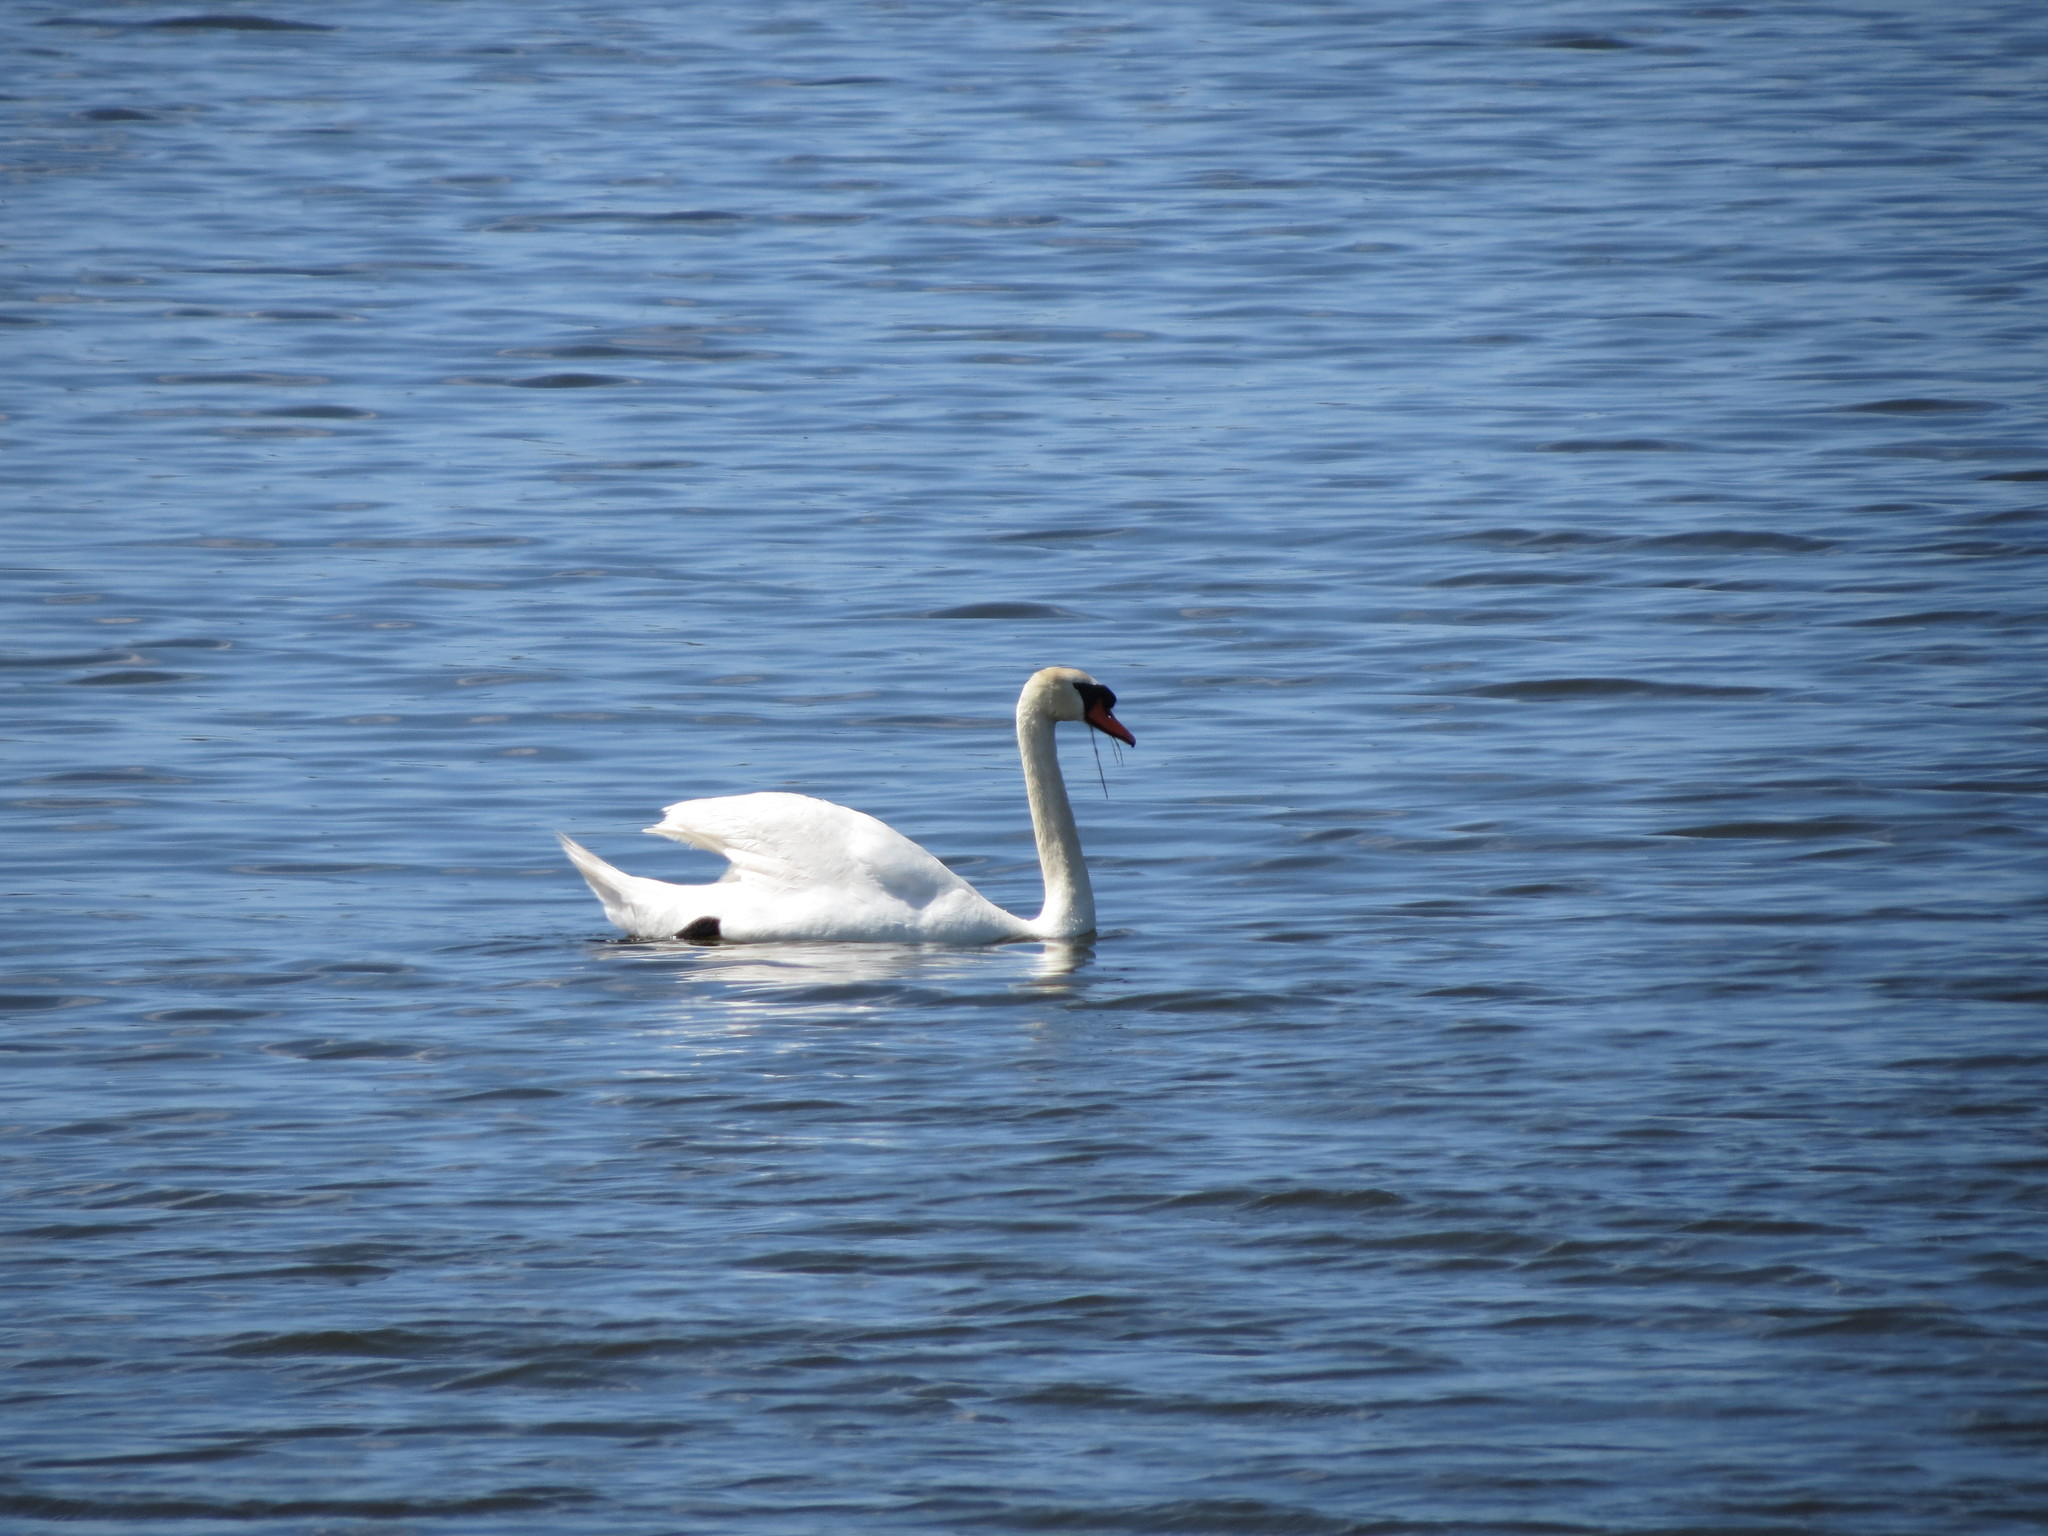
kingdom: Animalia
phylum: Chordata
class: Aves
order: Anseriformes
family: Anatidae
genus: Cygnus
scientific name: Cygnus olor
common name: Mute swan
